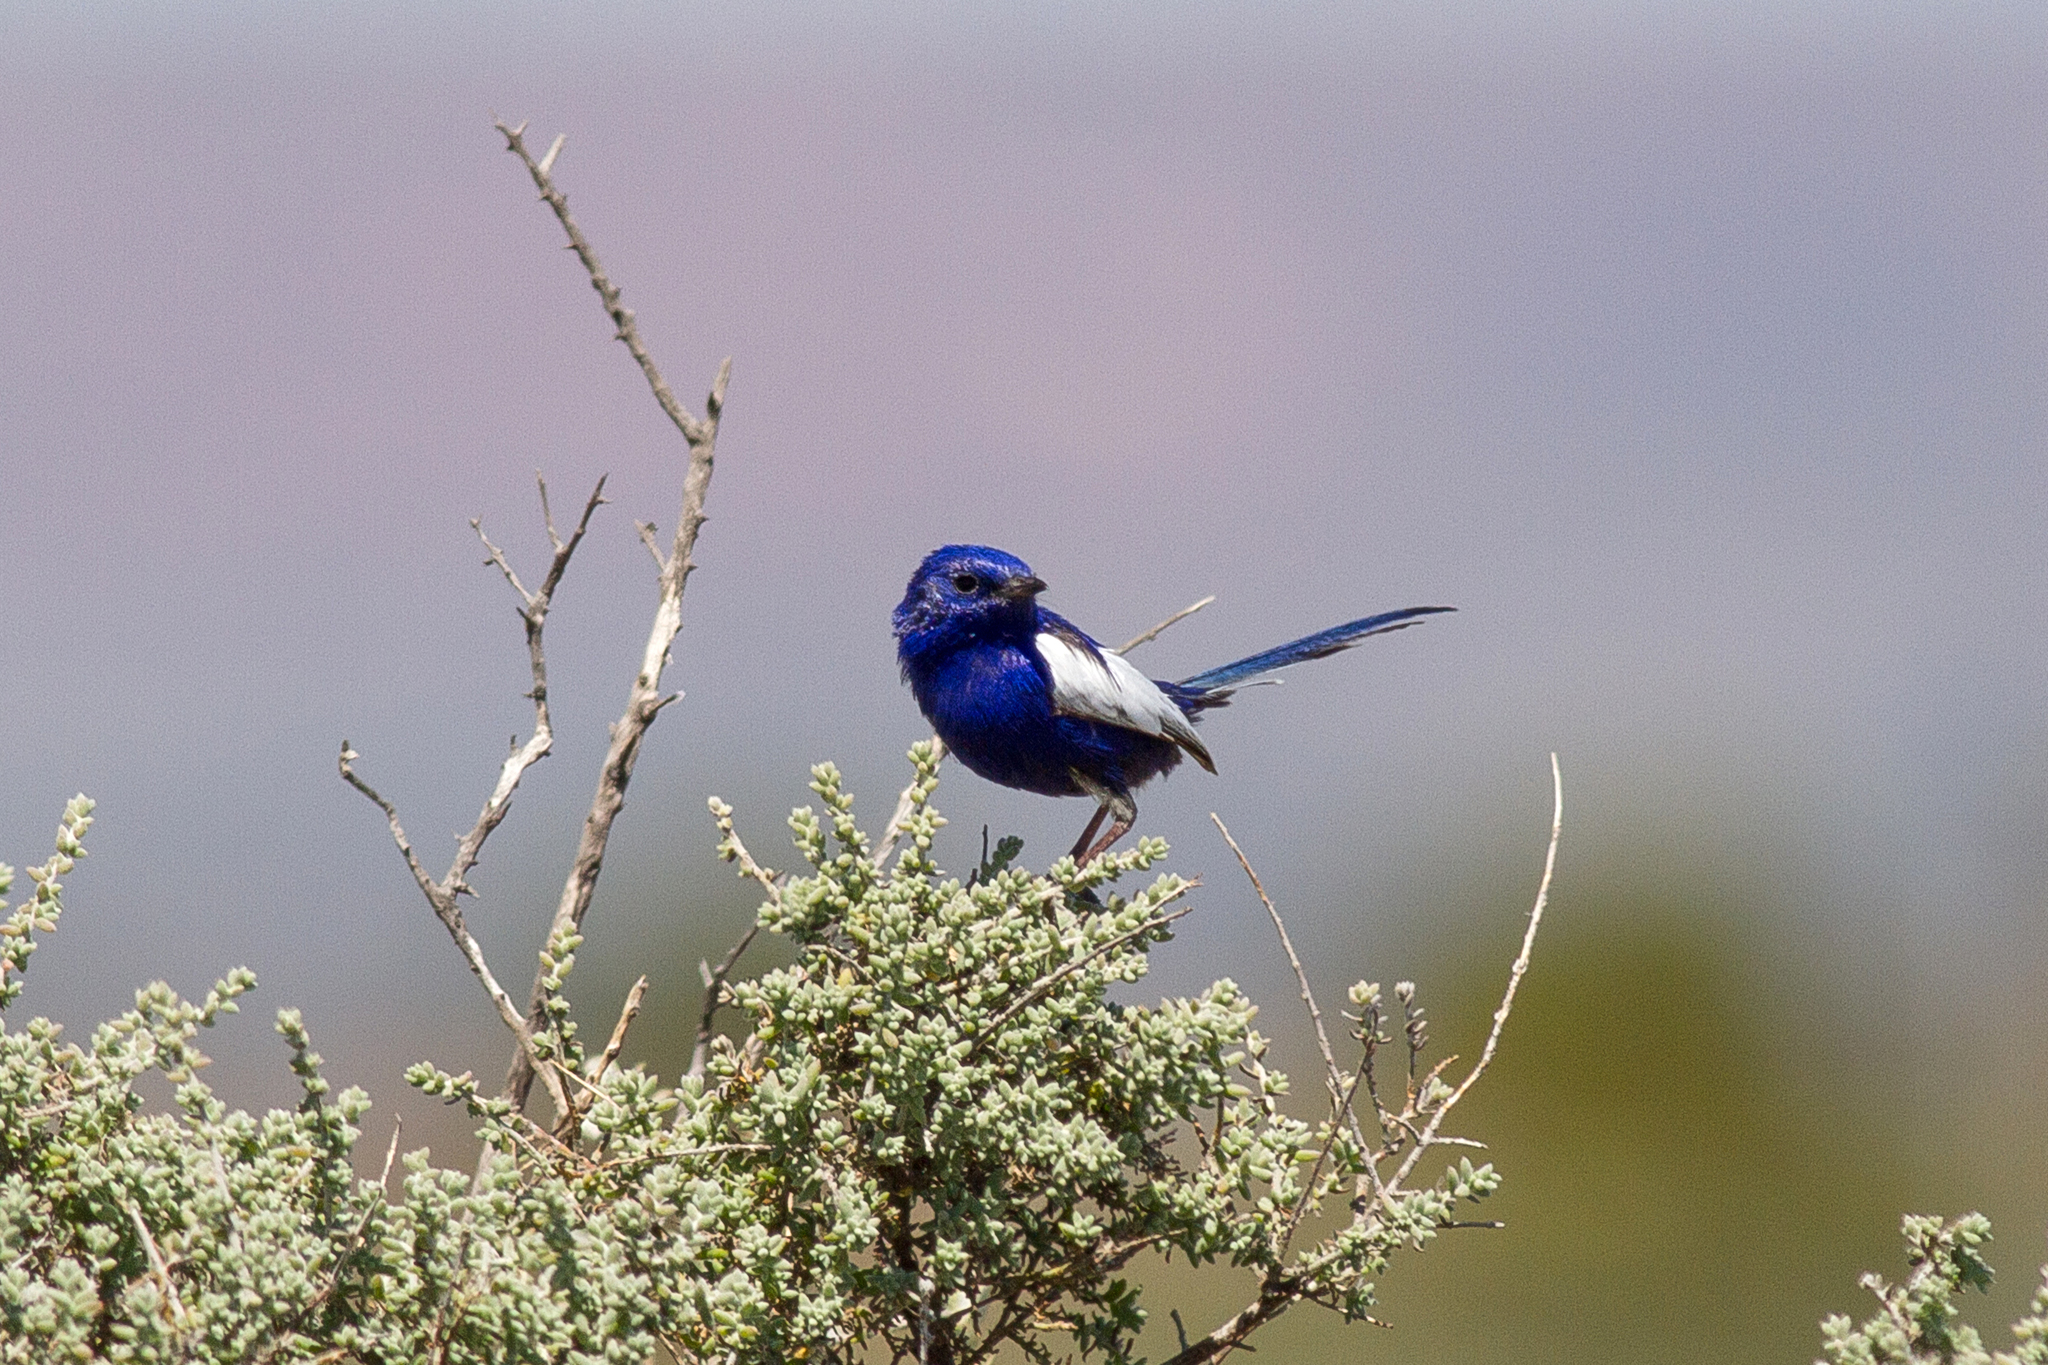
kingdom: Animalia
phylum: Chordata
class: Aves
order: Passeriformes
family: Maluridae
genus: Malurus
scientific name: Malurus leucopterus
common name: White-winged fairywren
